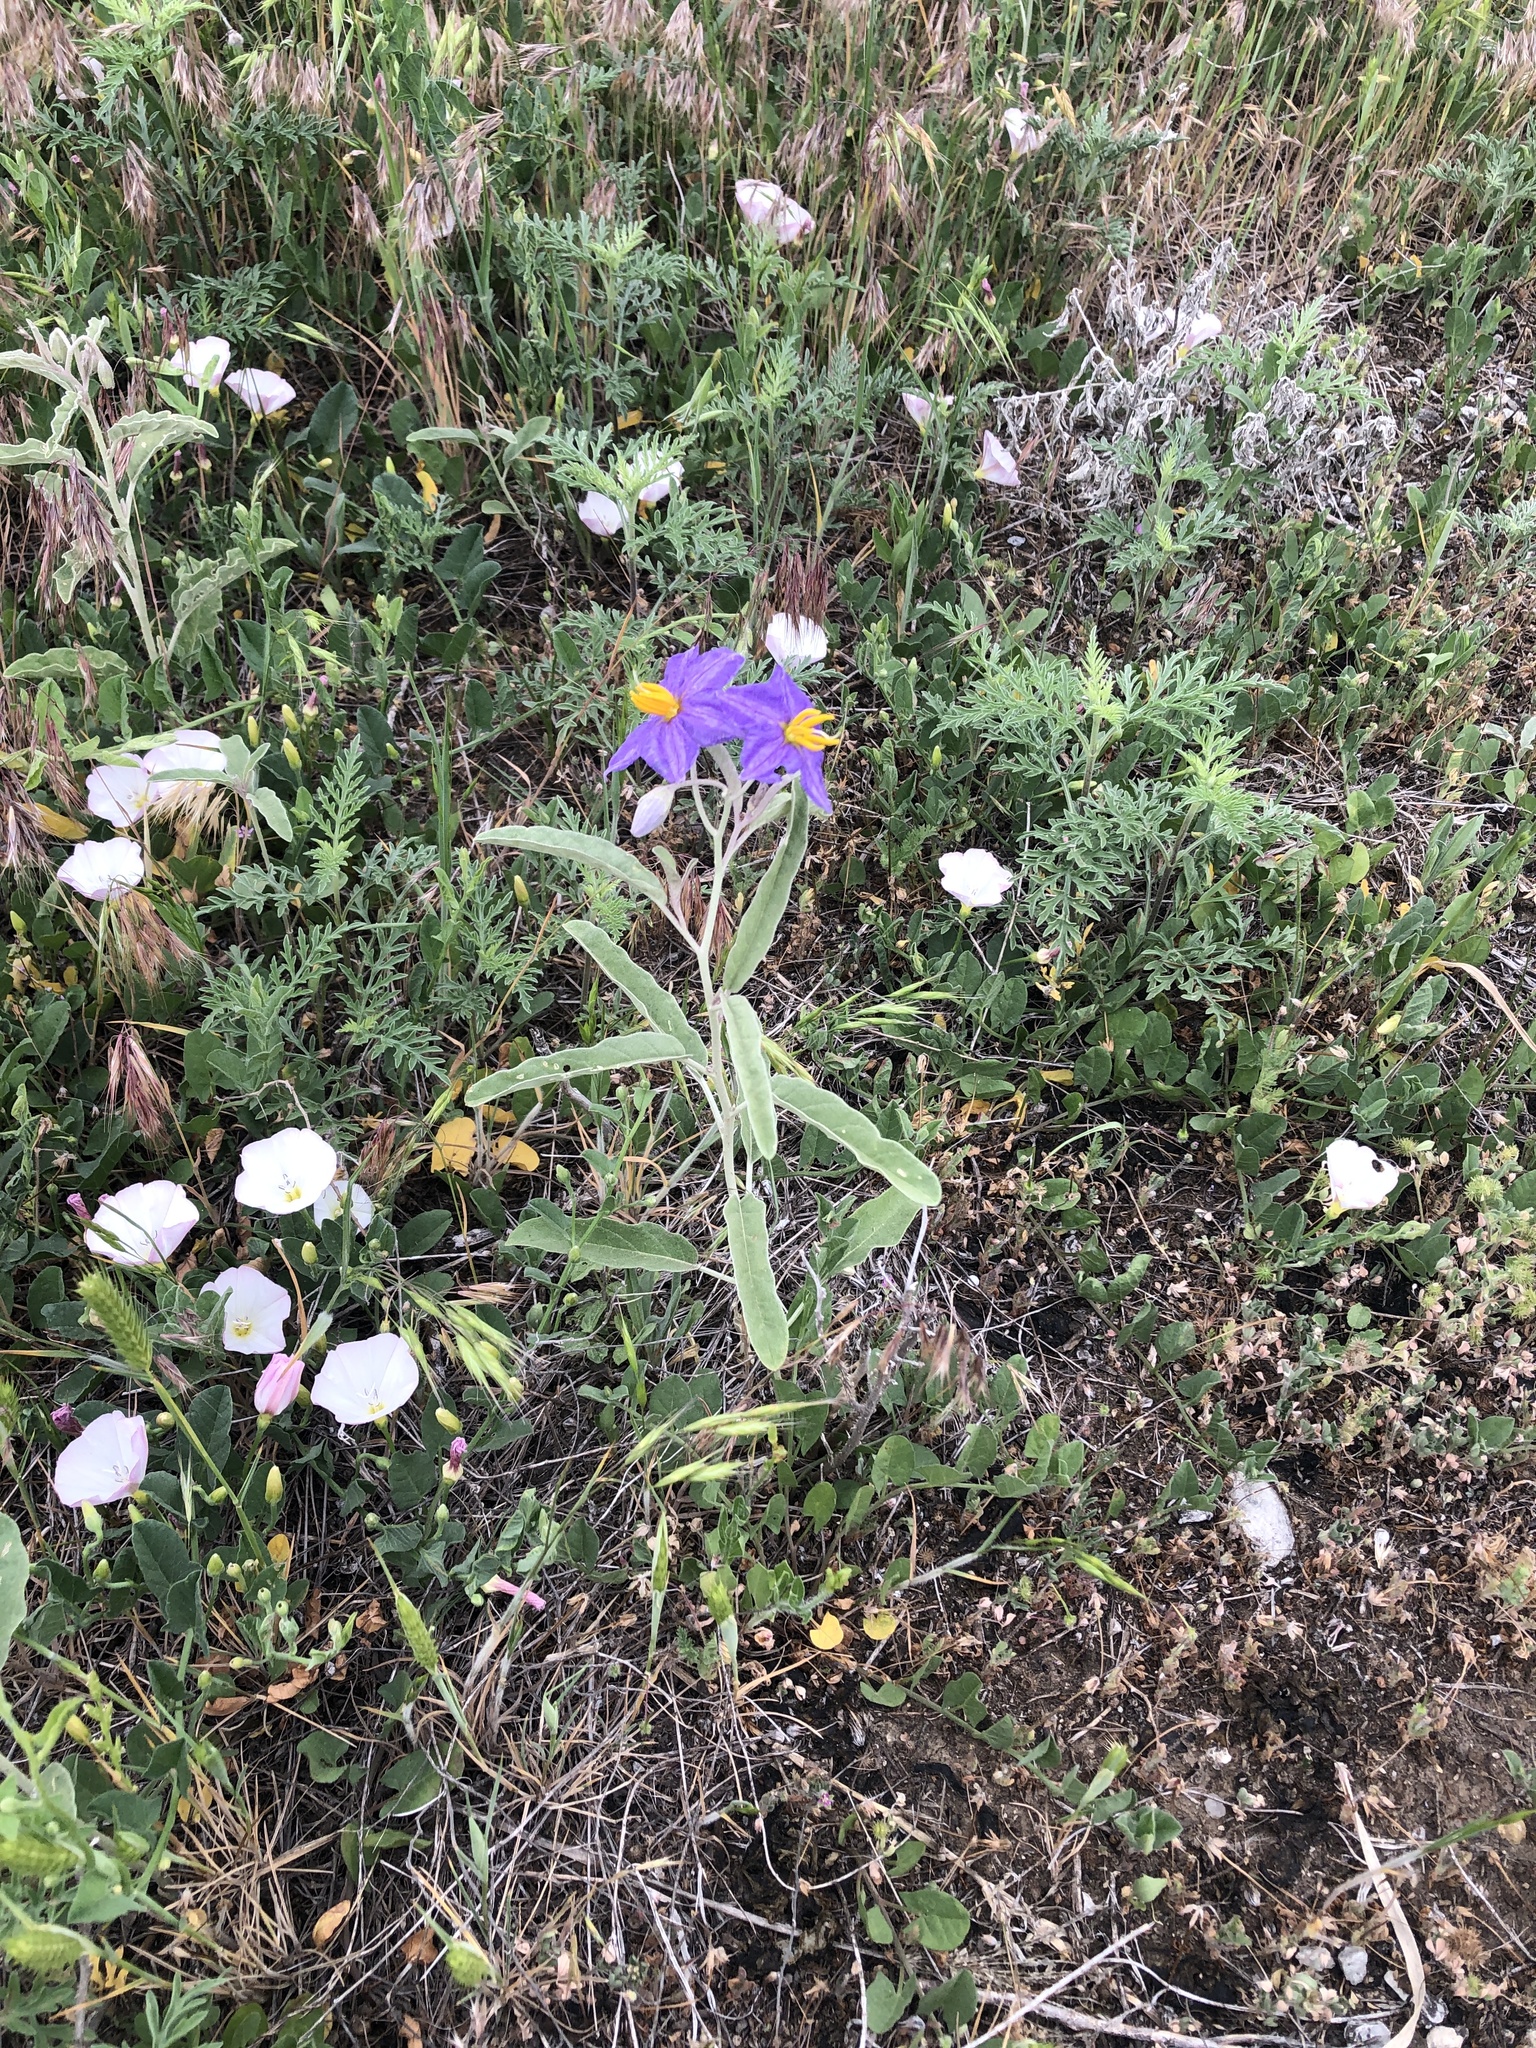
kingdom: Plantae
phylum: Tracheophyta
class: Magnoliopsida
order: Solanales
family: Solanaceae
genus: Solanum
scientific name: Solanum elaeagnifolium
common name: Silverleaf nightshade
